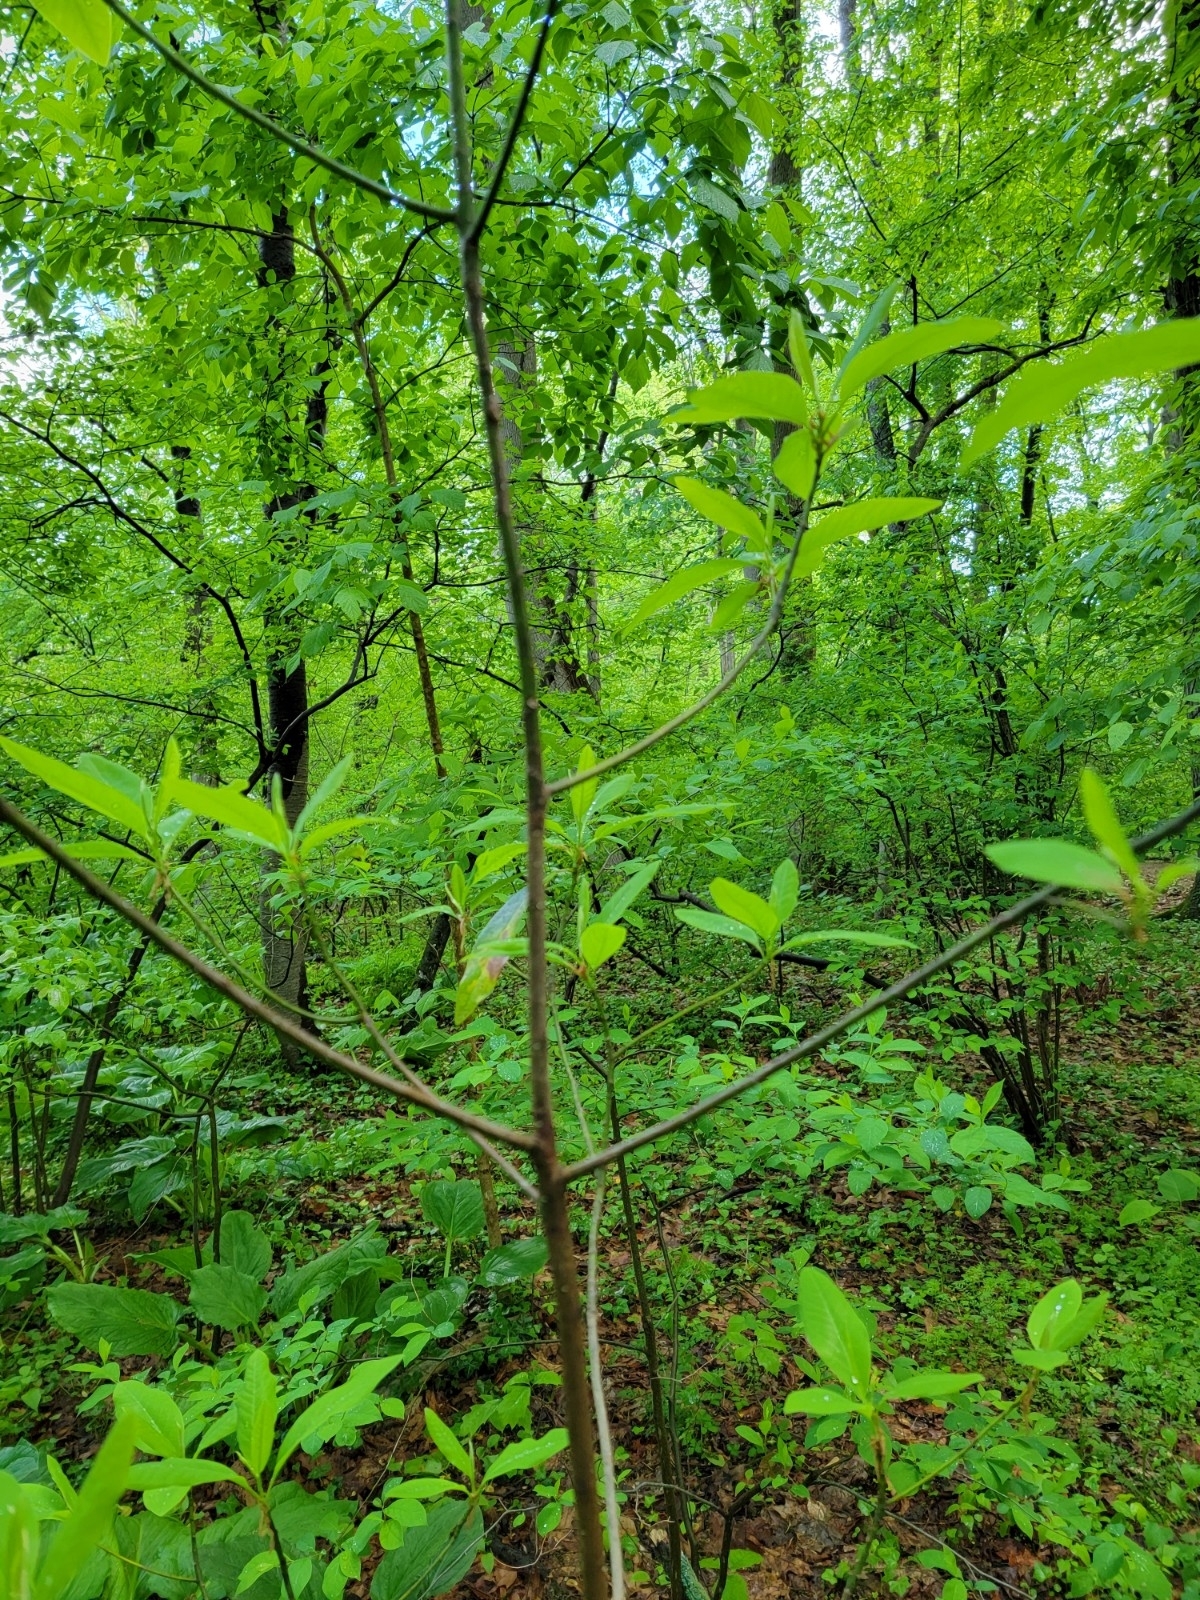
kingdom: Plantae
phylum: Tracheophyta
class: Magnoliopsida
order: Magnoliales
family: Magnoliaceae
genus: Magnolia
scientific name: Magnolia virginiana
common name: Swamp bay
